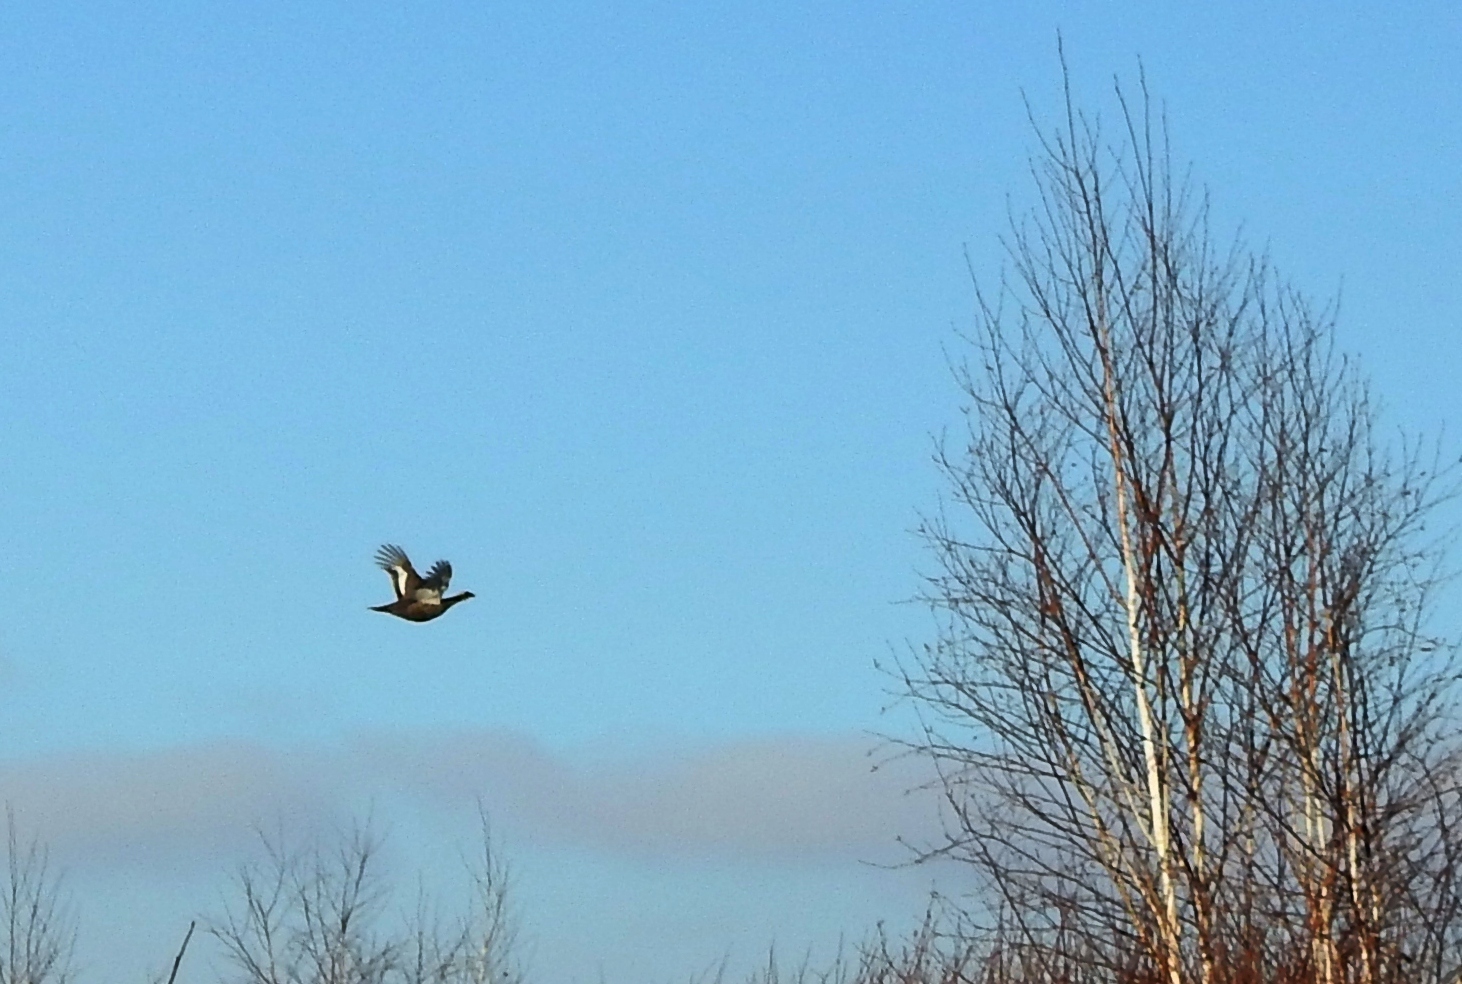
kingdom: Animalia
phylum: Chordata
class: Aves
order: Galliformes
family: Phasianidae
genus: Lyrurus
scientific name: Lyrurus tetrix
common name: Black grouse
